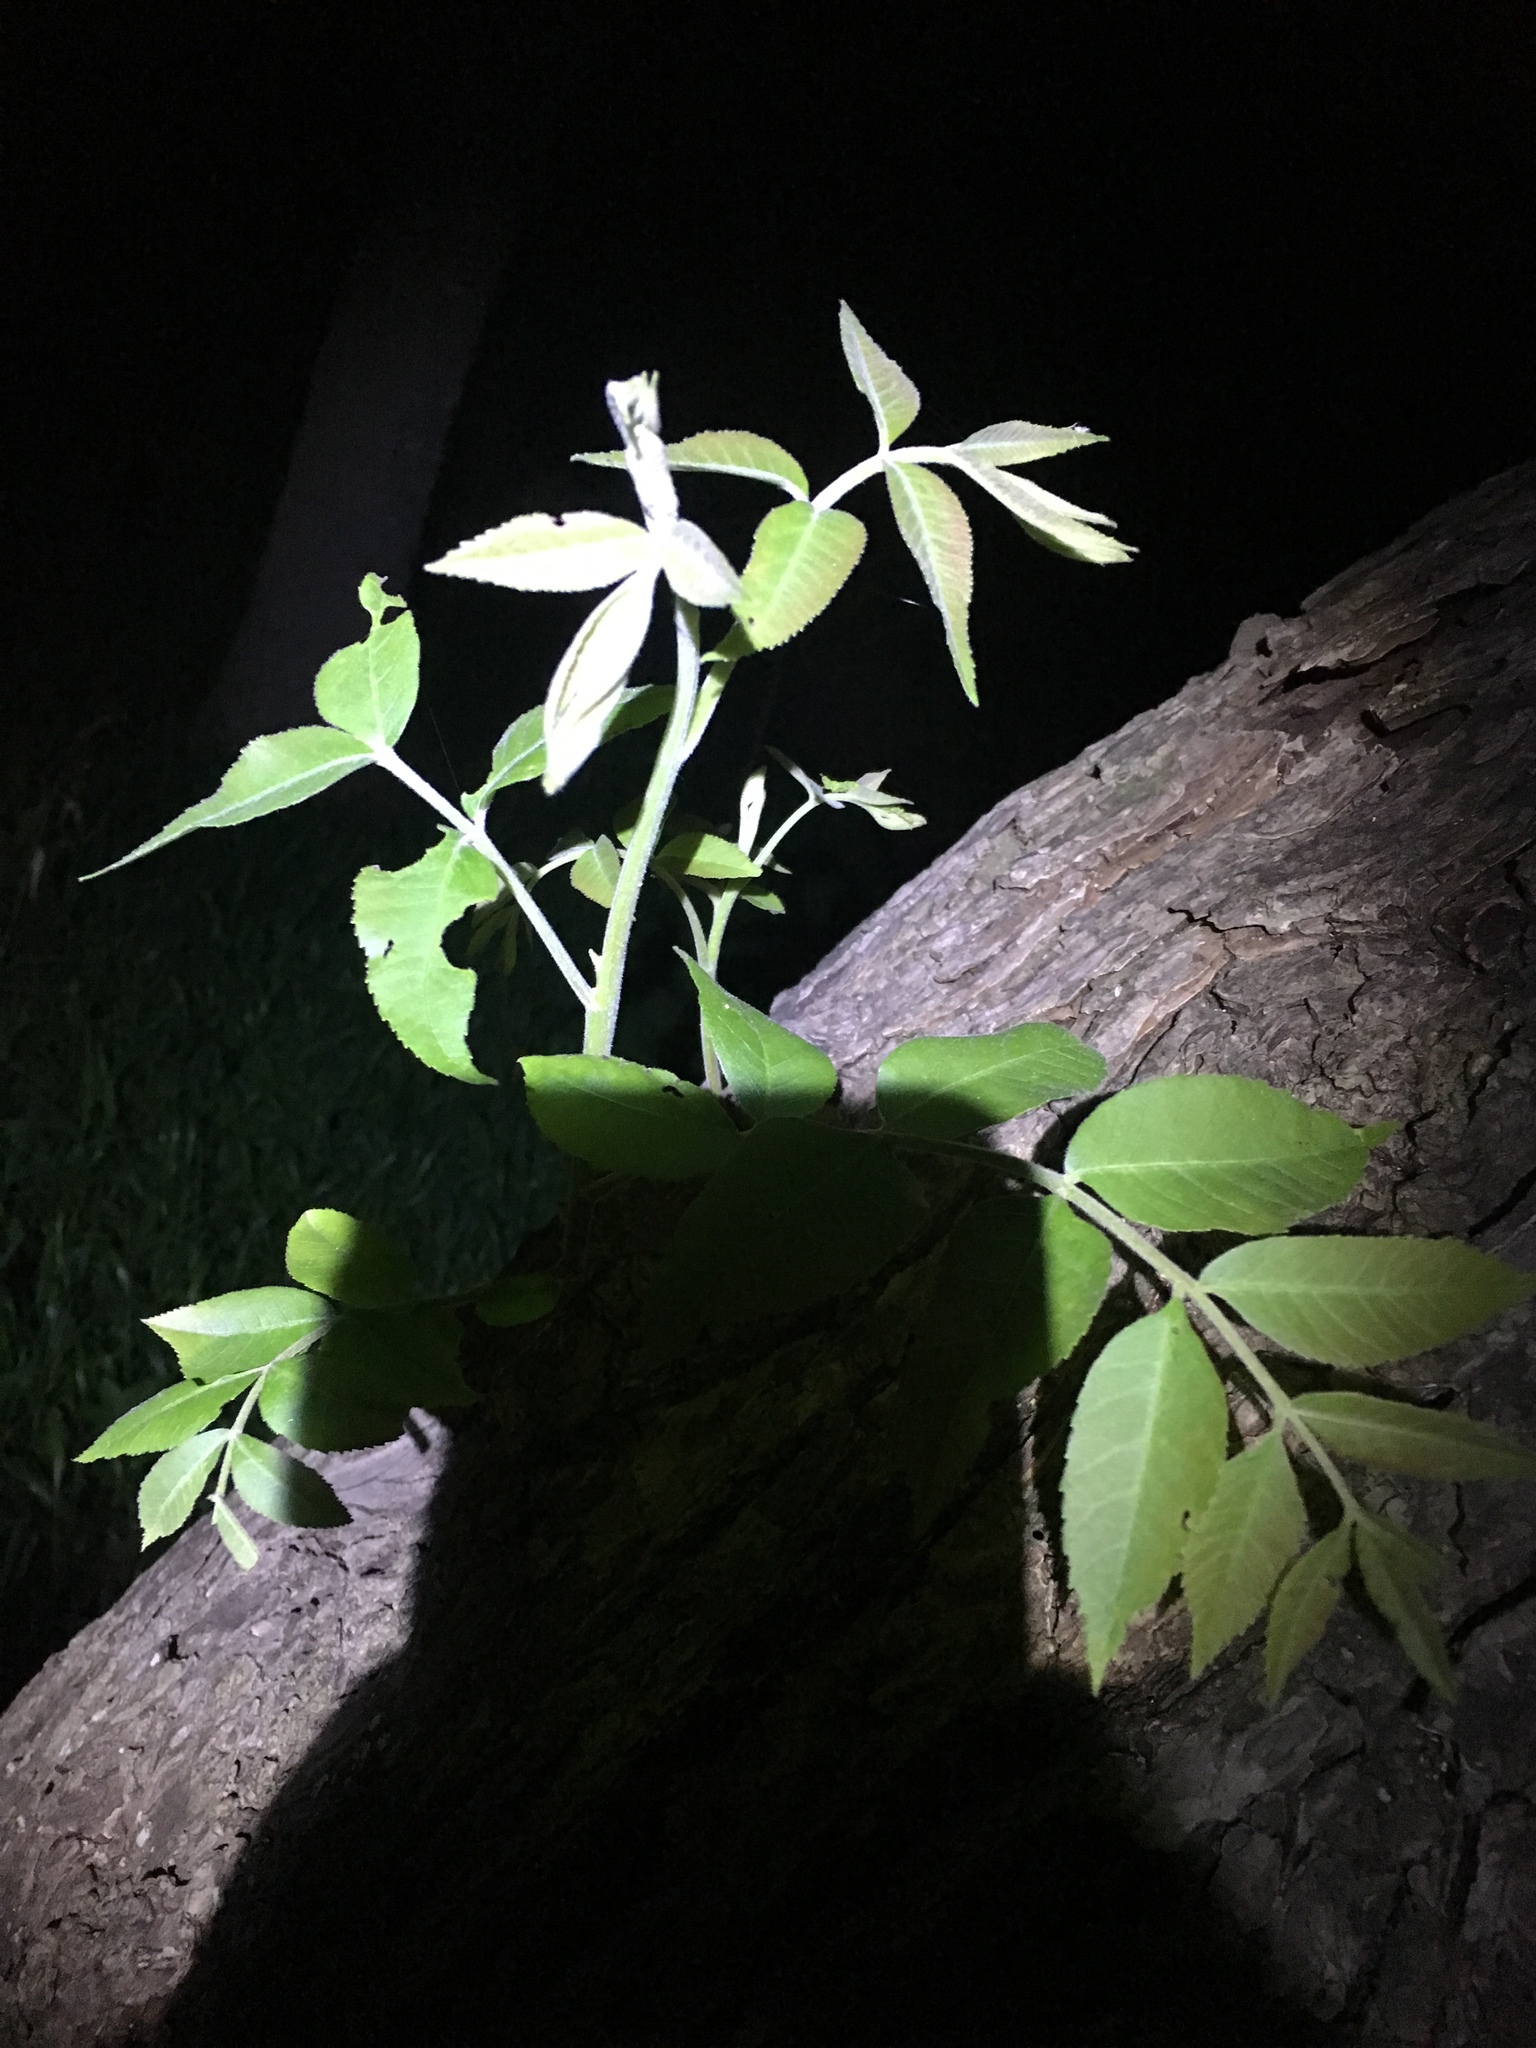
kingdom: Plantae
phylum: Tracheophyta
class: Magnoliopsida
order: Fagales
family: Juglandaceae
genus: Carya
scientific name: Carya illinoinensis
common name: Pecan
